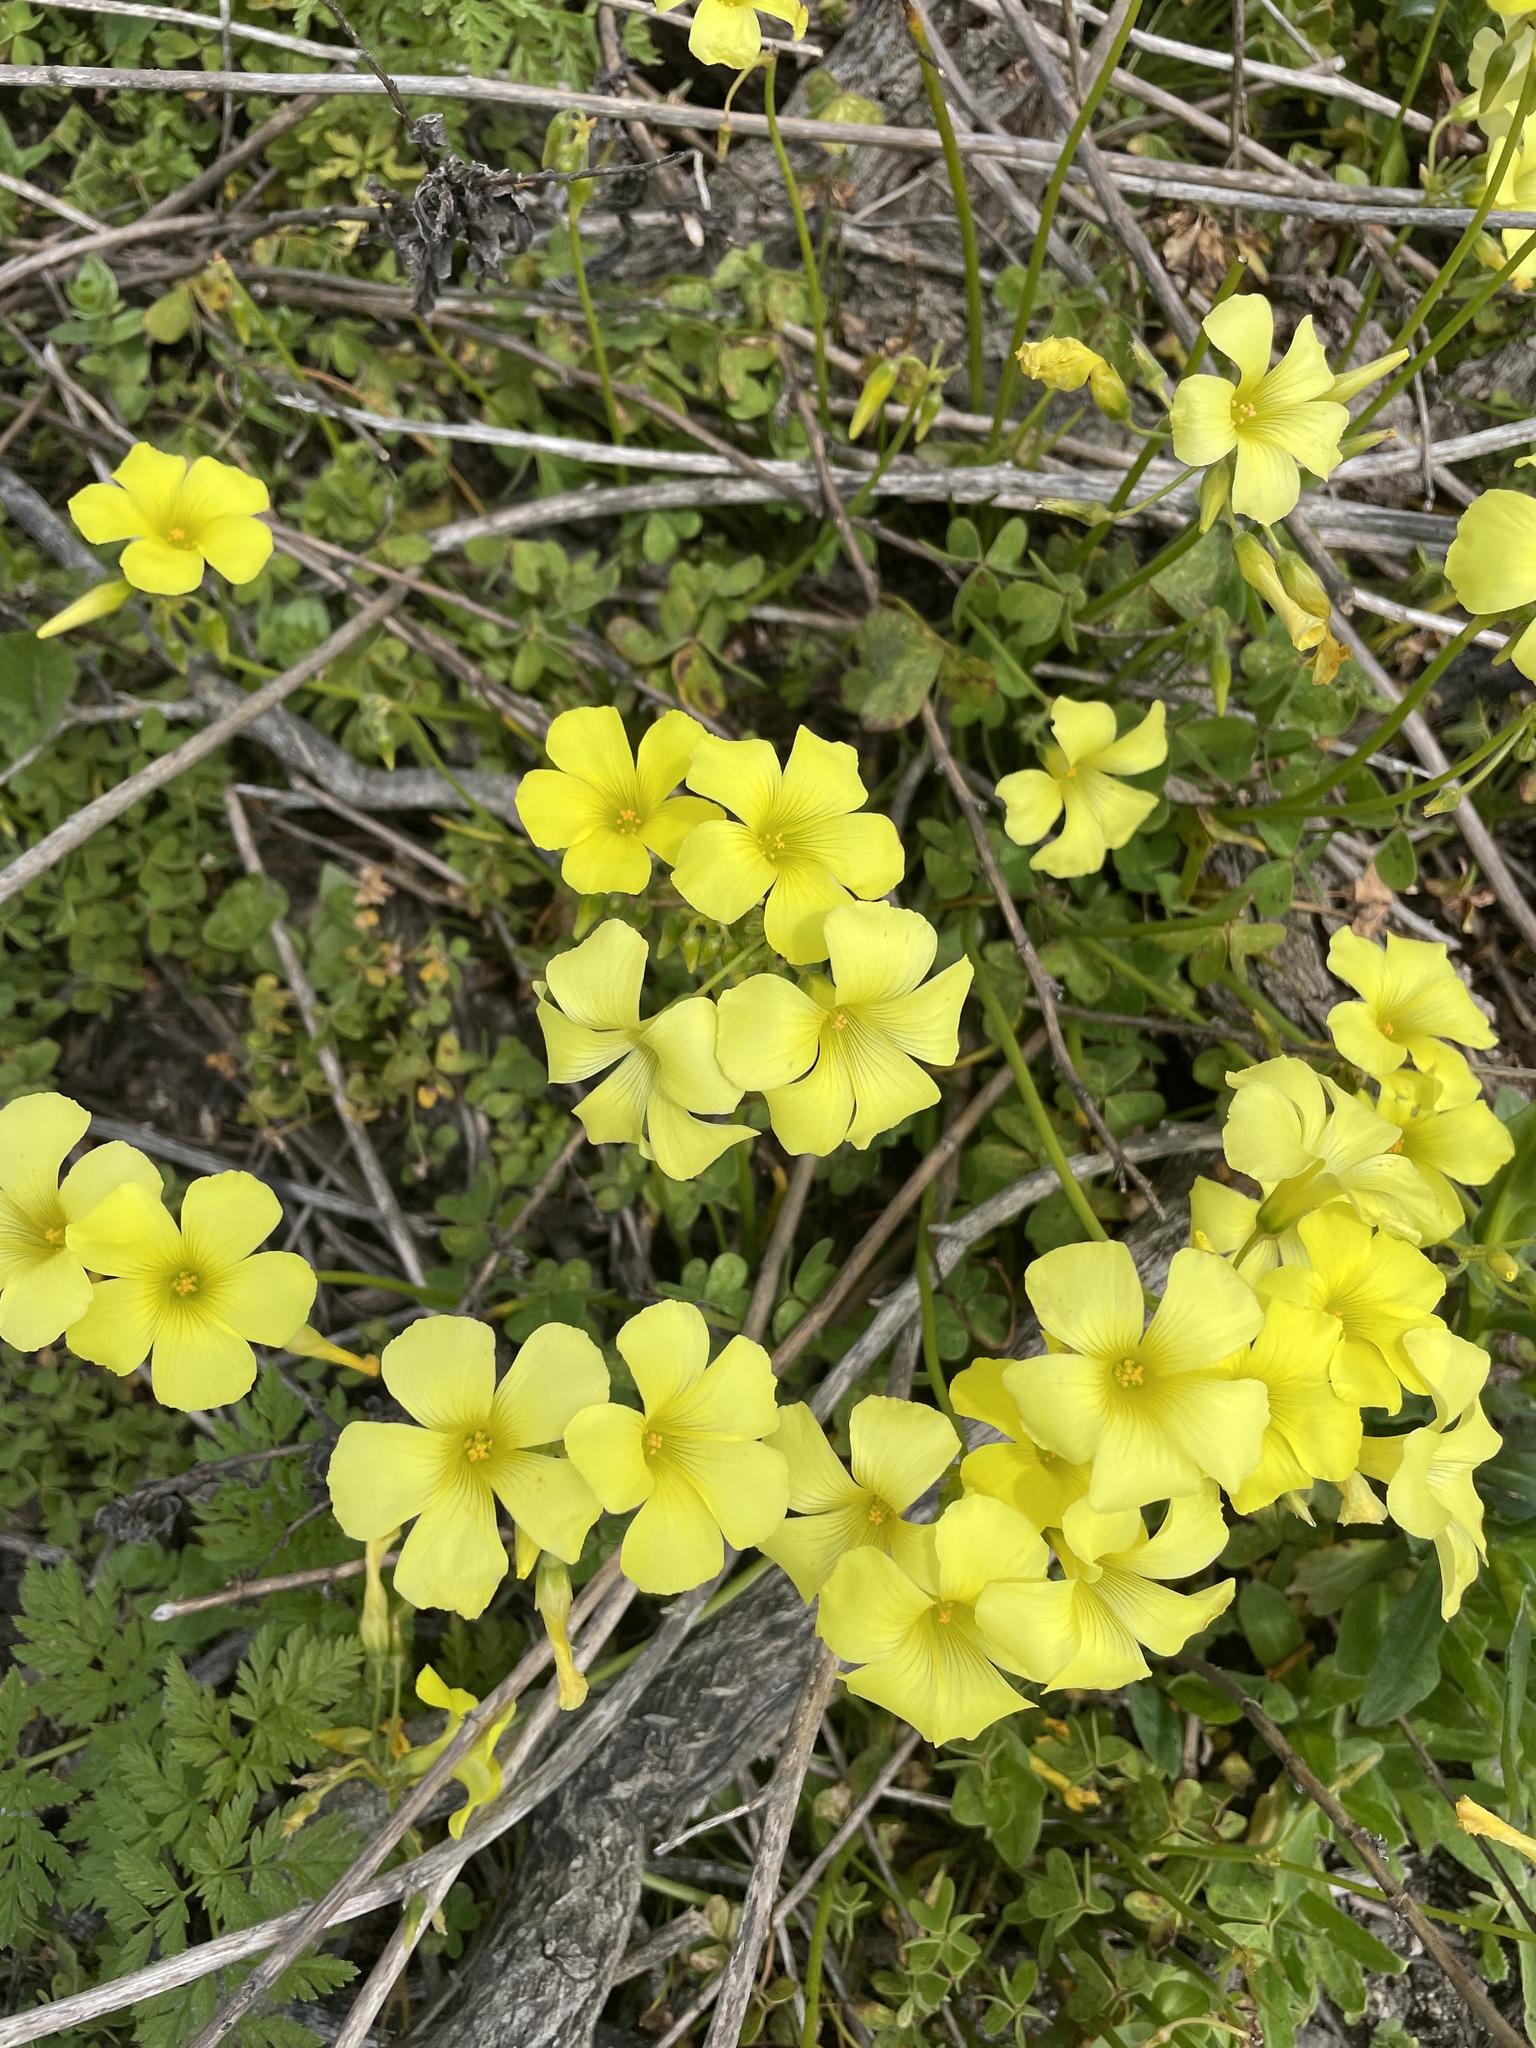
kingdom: Plantae
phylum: Tracheophyta
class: Magnoliopsida
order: Oxalidales
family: Oxalidaceae
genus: Oxalis
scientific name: Oxalis pes-caprae
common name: Bermuda-buttercup
